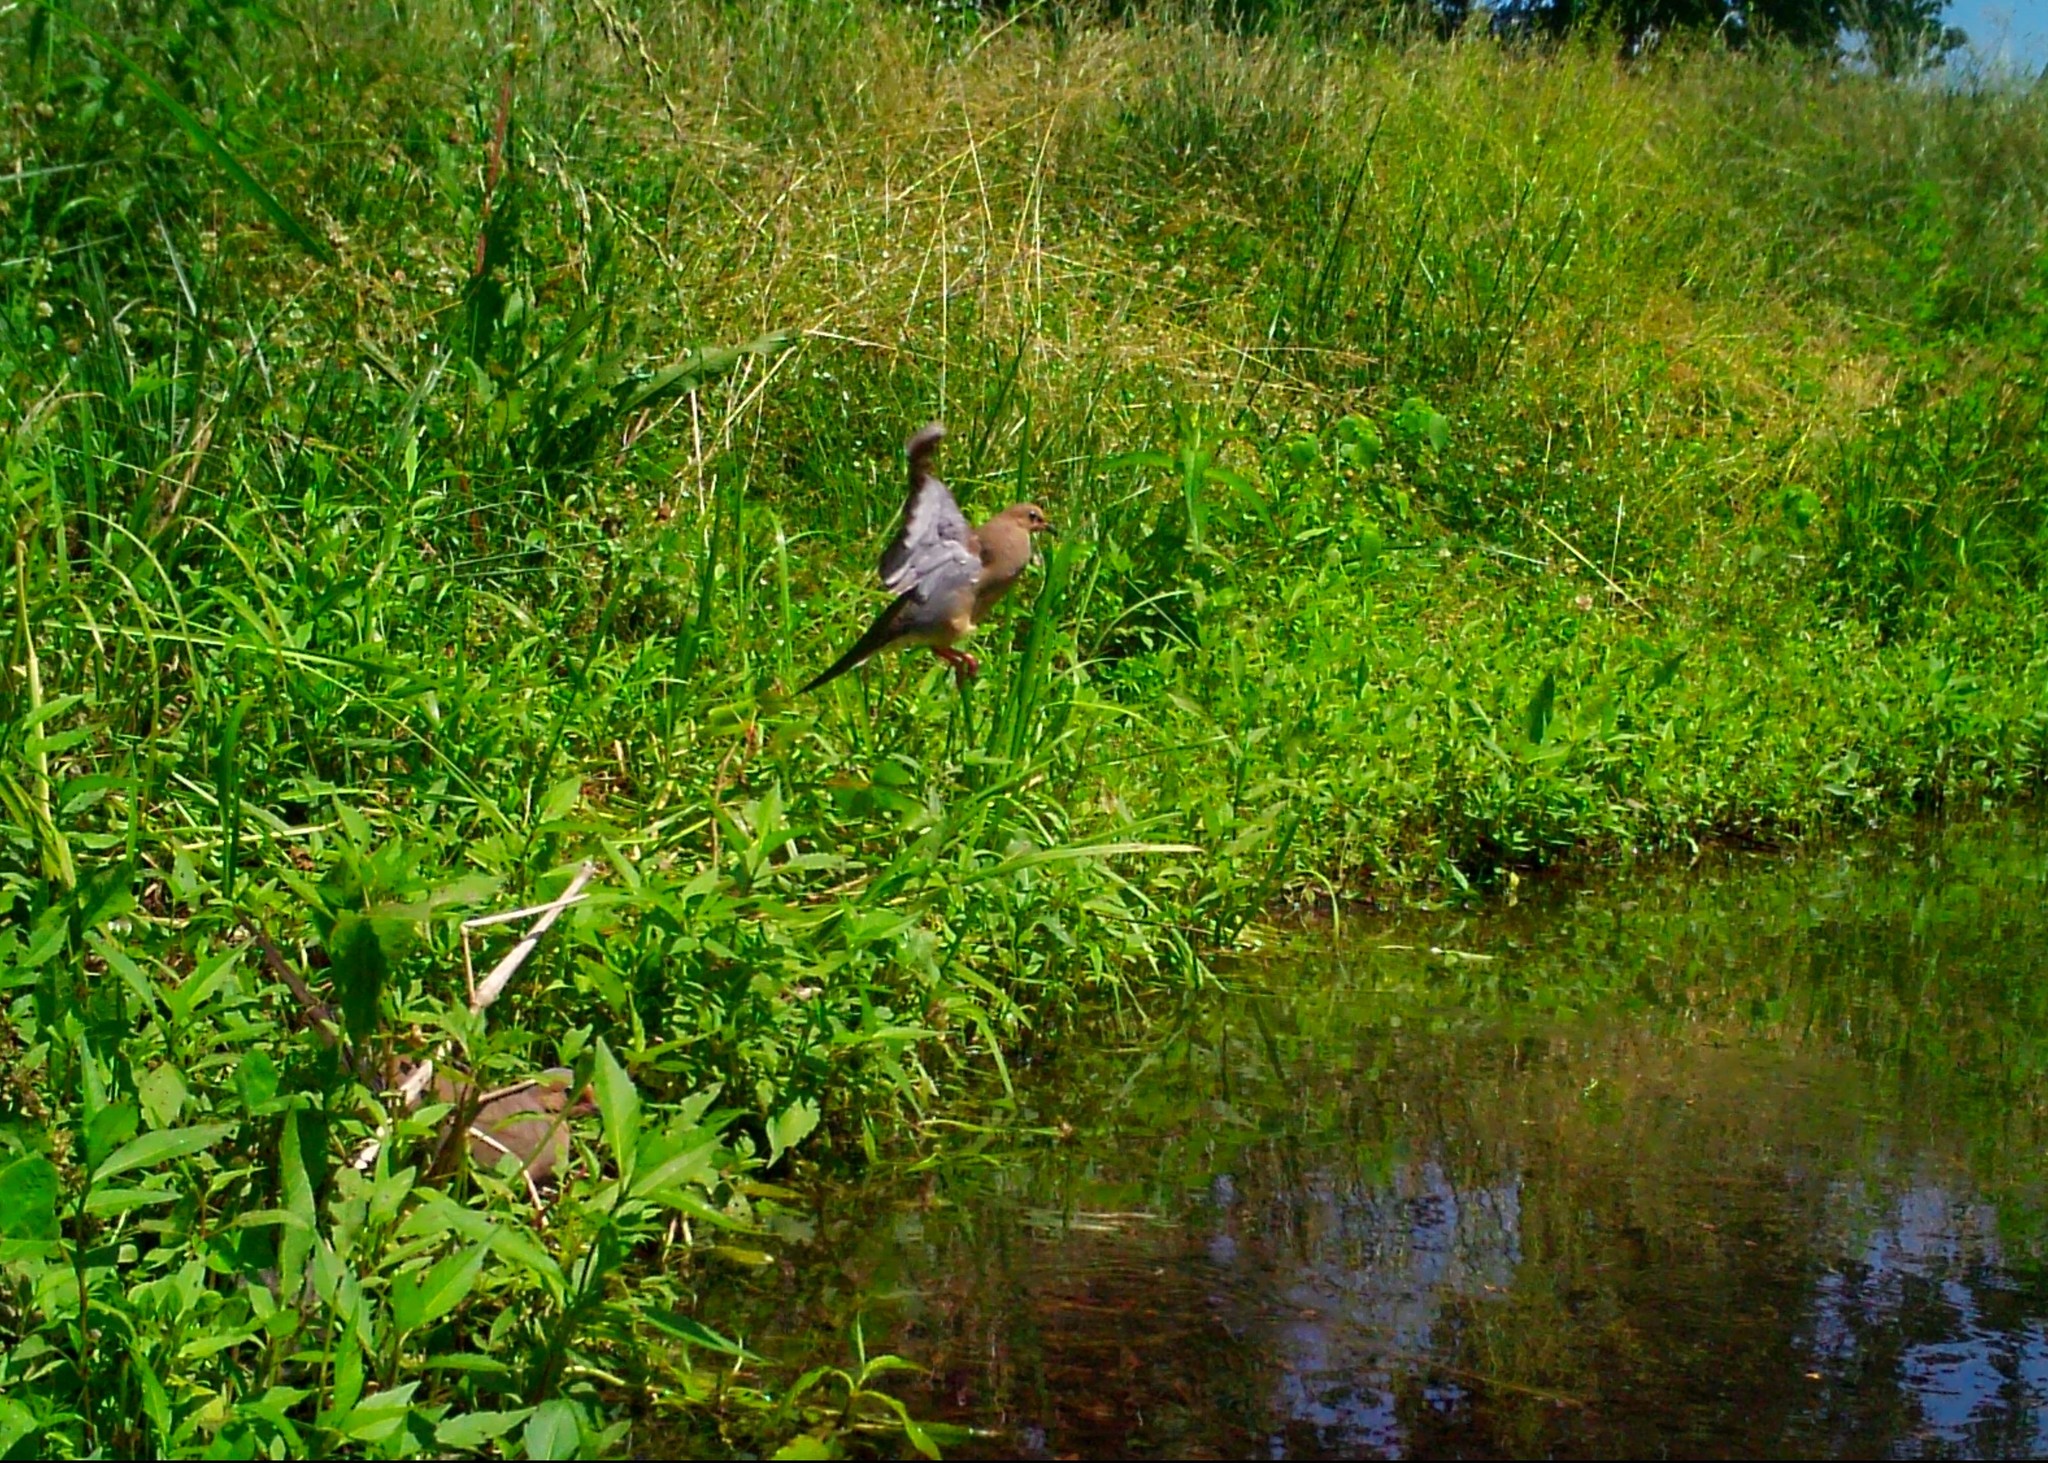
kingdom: Animalia
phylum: Chordata
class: Aves
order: Columbiformes
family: Columbidae
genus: Zenaida
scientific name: Zenaida macroura
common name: Mourning dove
